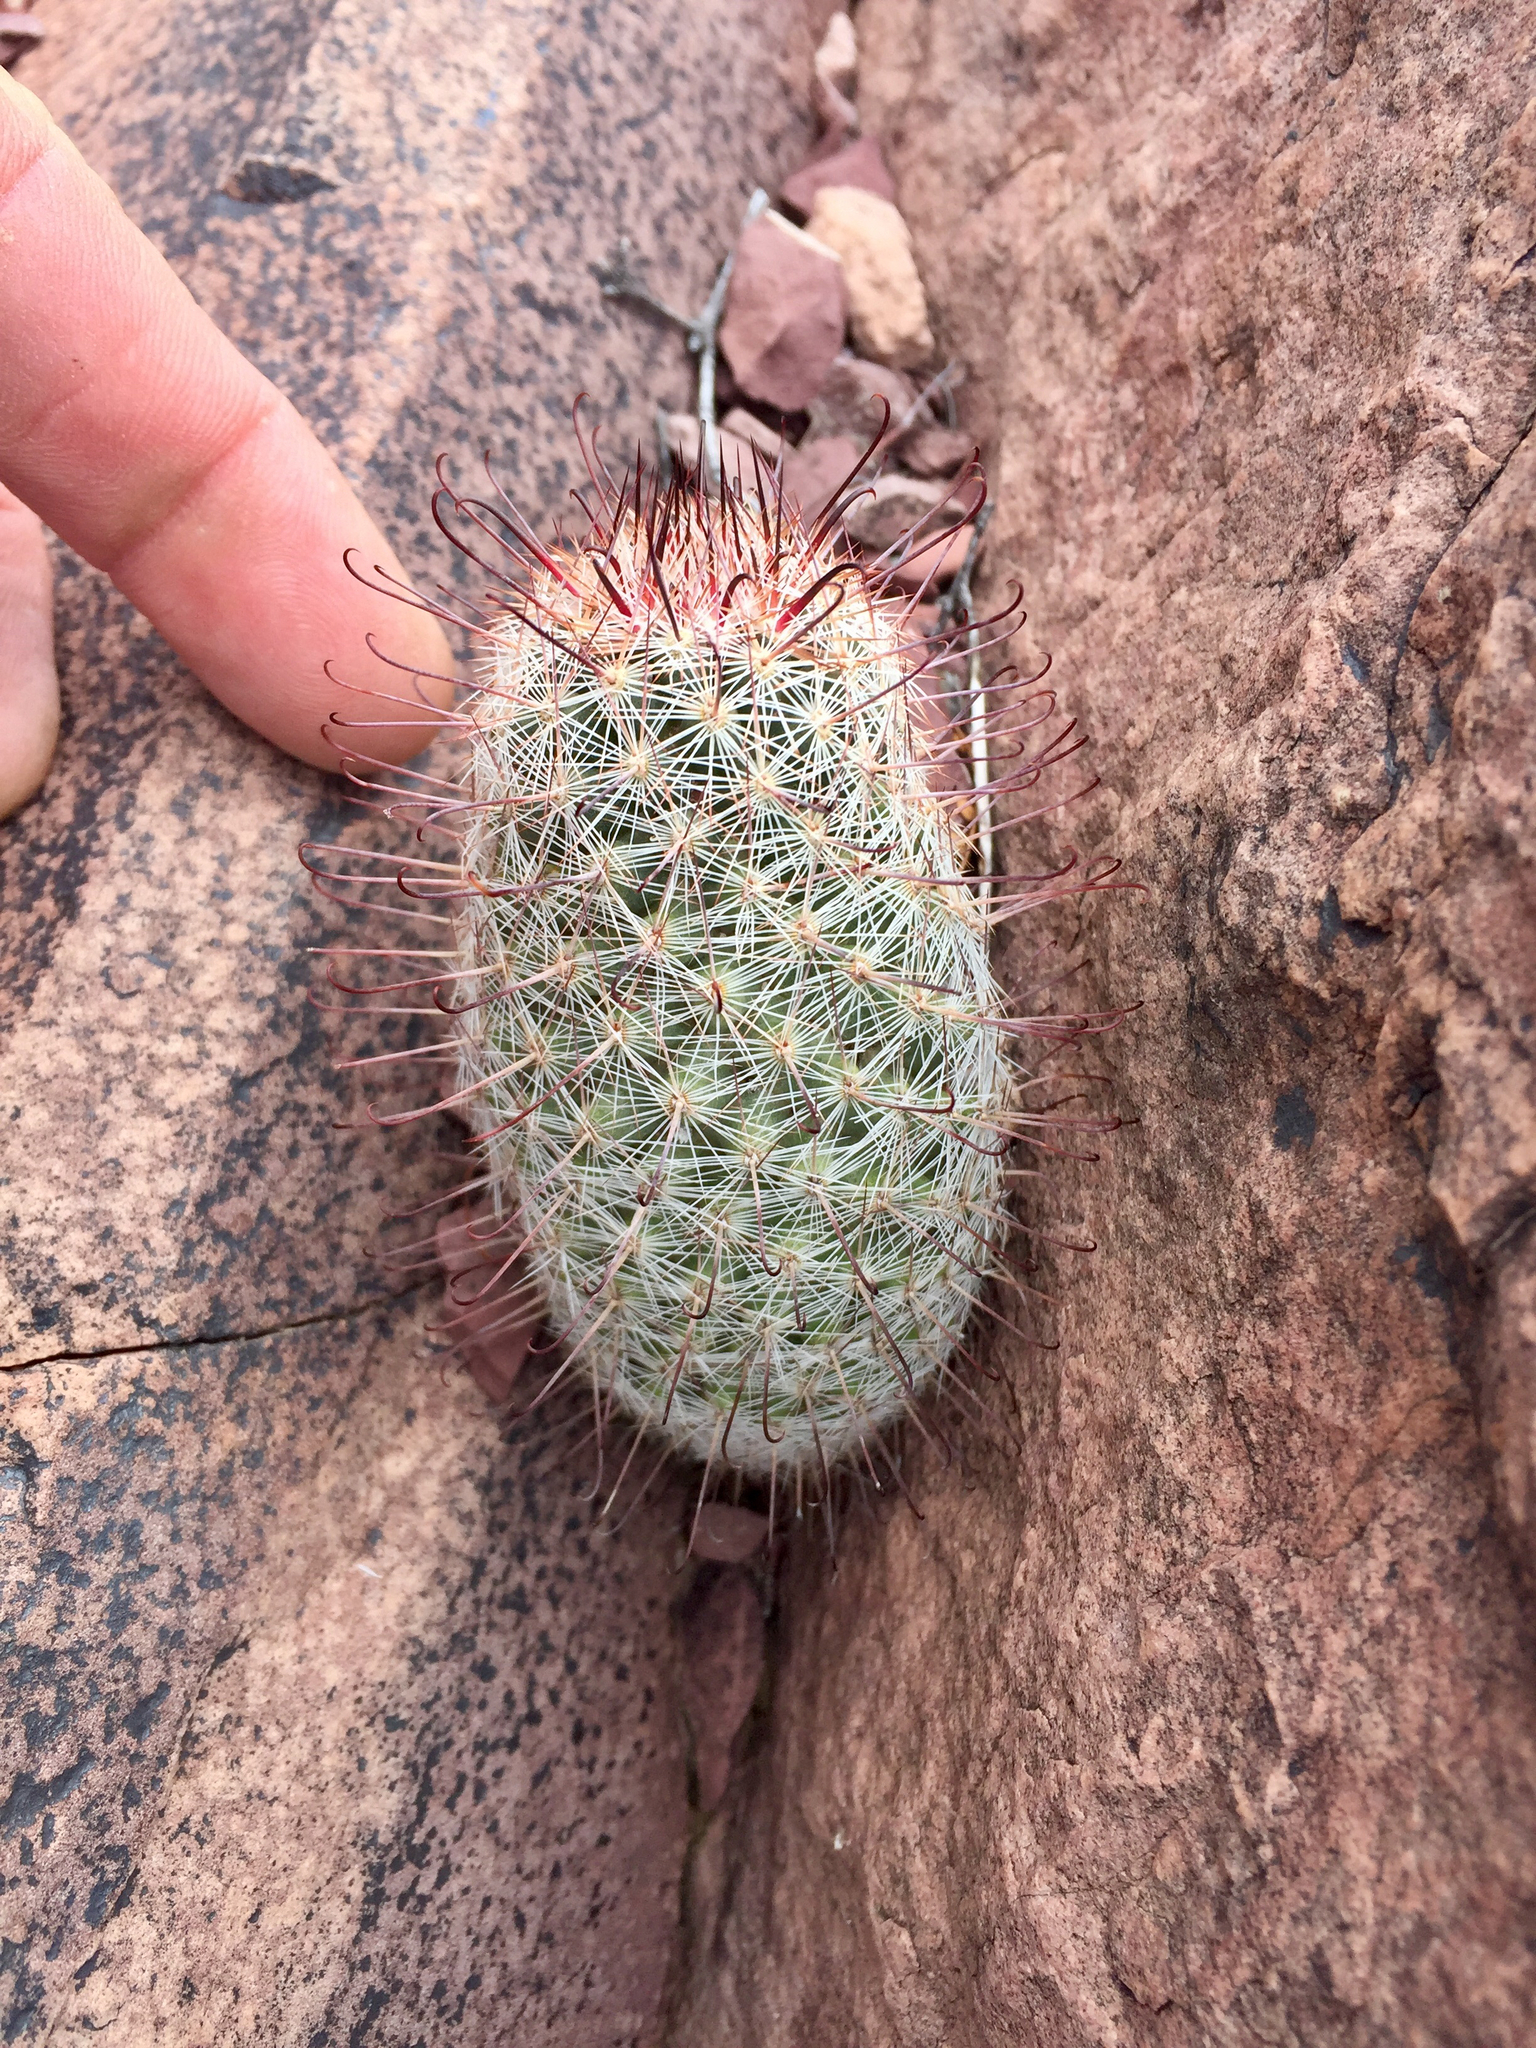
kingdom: Plantae
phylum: Tracheophyta
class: Magnoliopsida
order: Caryophyllales
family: Cactaceae
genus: Cochemiea
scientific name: Cochemiea grahamii
